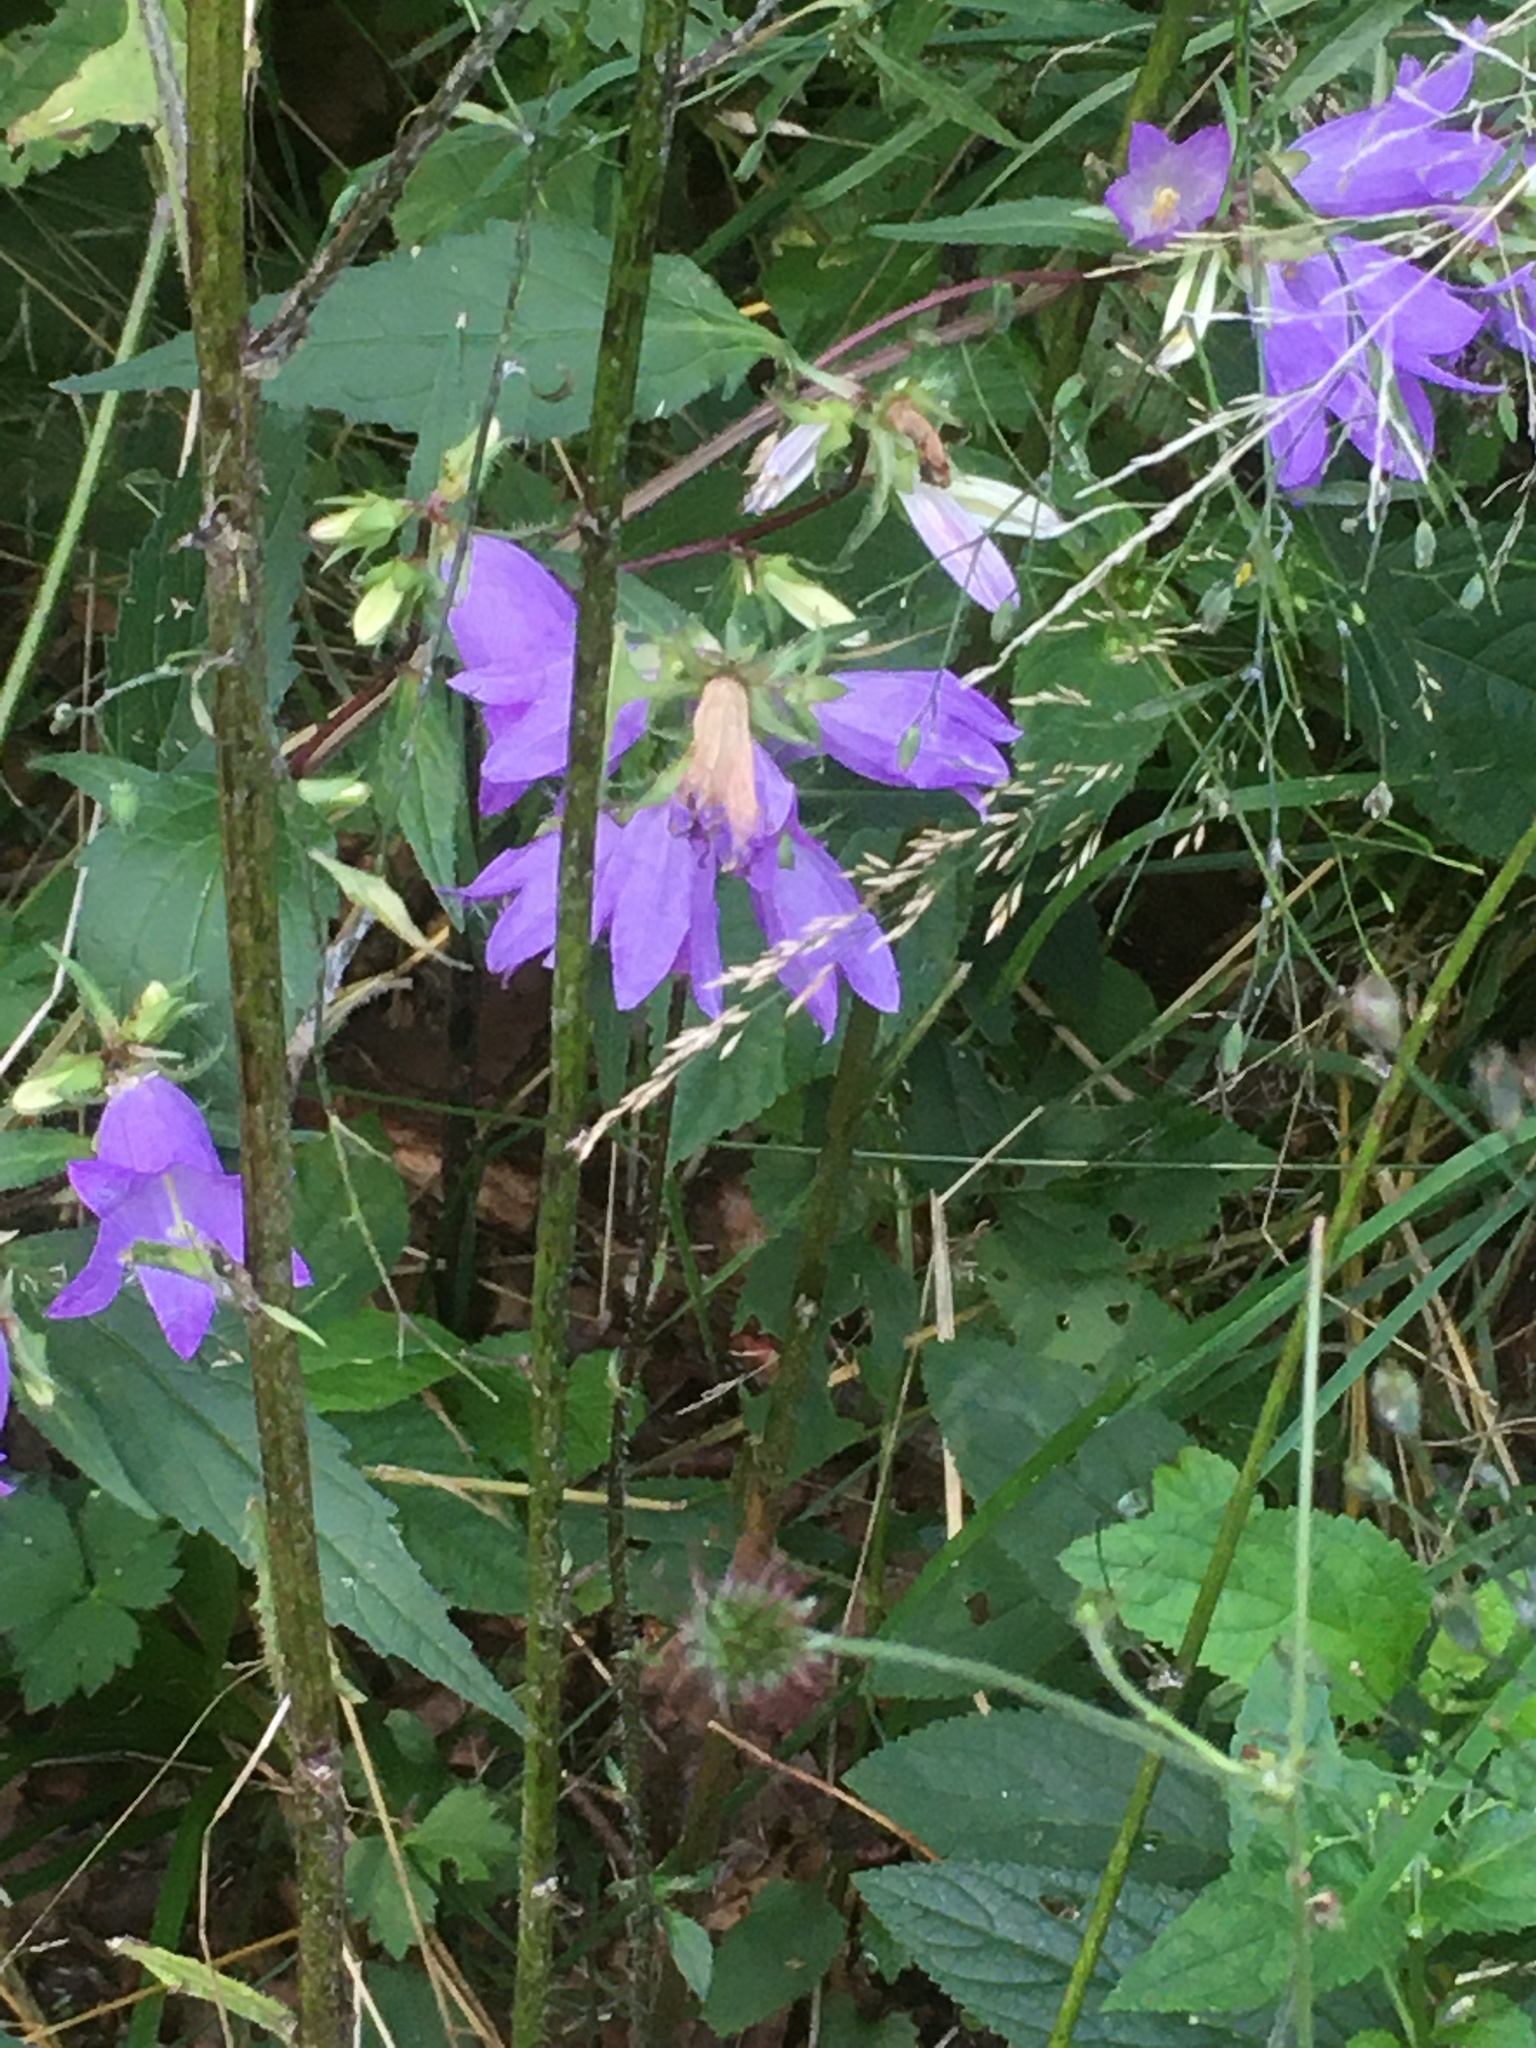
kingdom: Plantae
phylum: Tracheophyta
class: Magnoliopsida
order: Asterales
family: Campanulaceae
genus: Campanula
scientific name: Campanula trachelium
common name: Nettle-leaved bellflower
